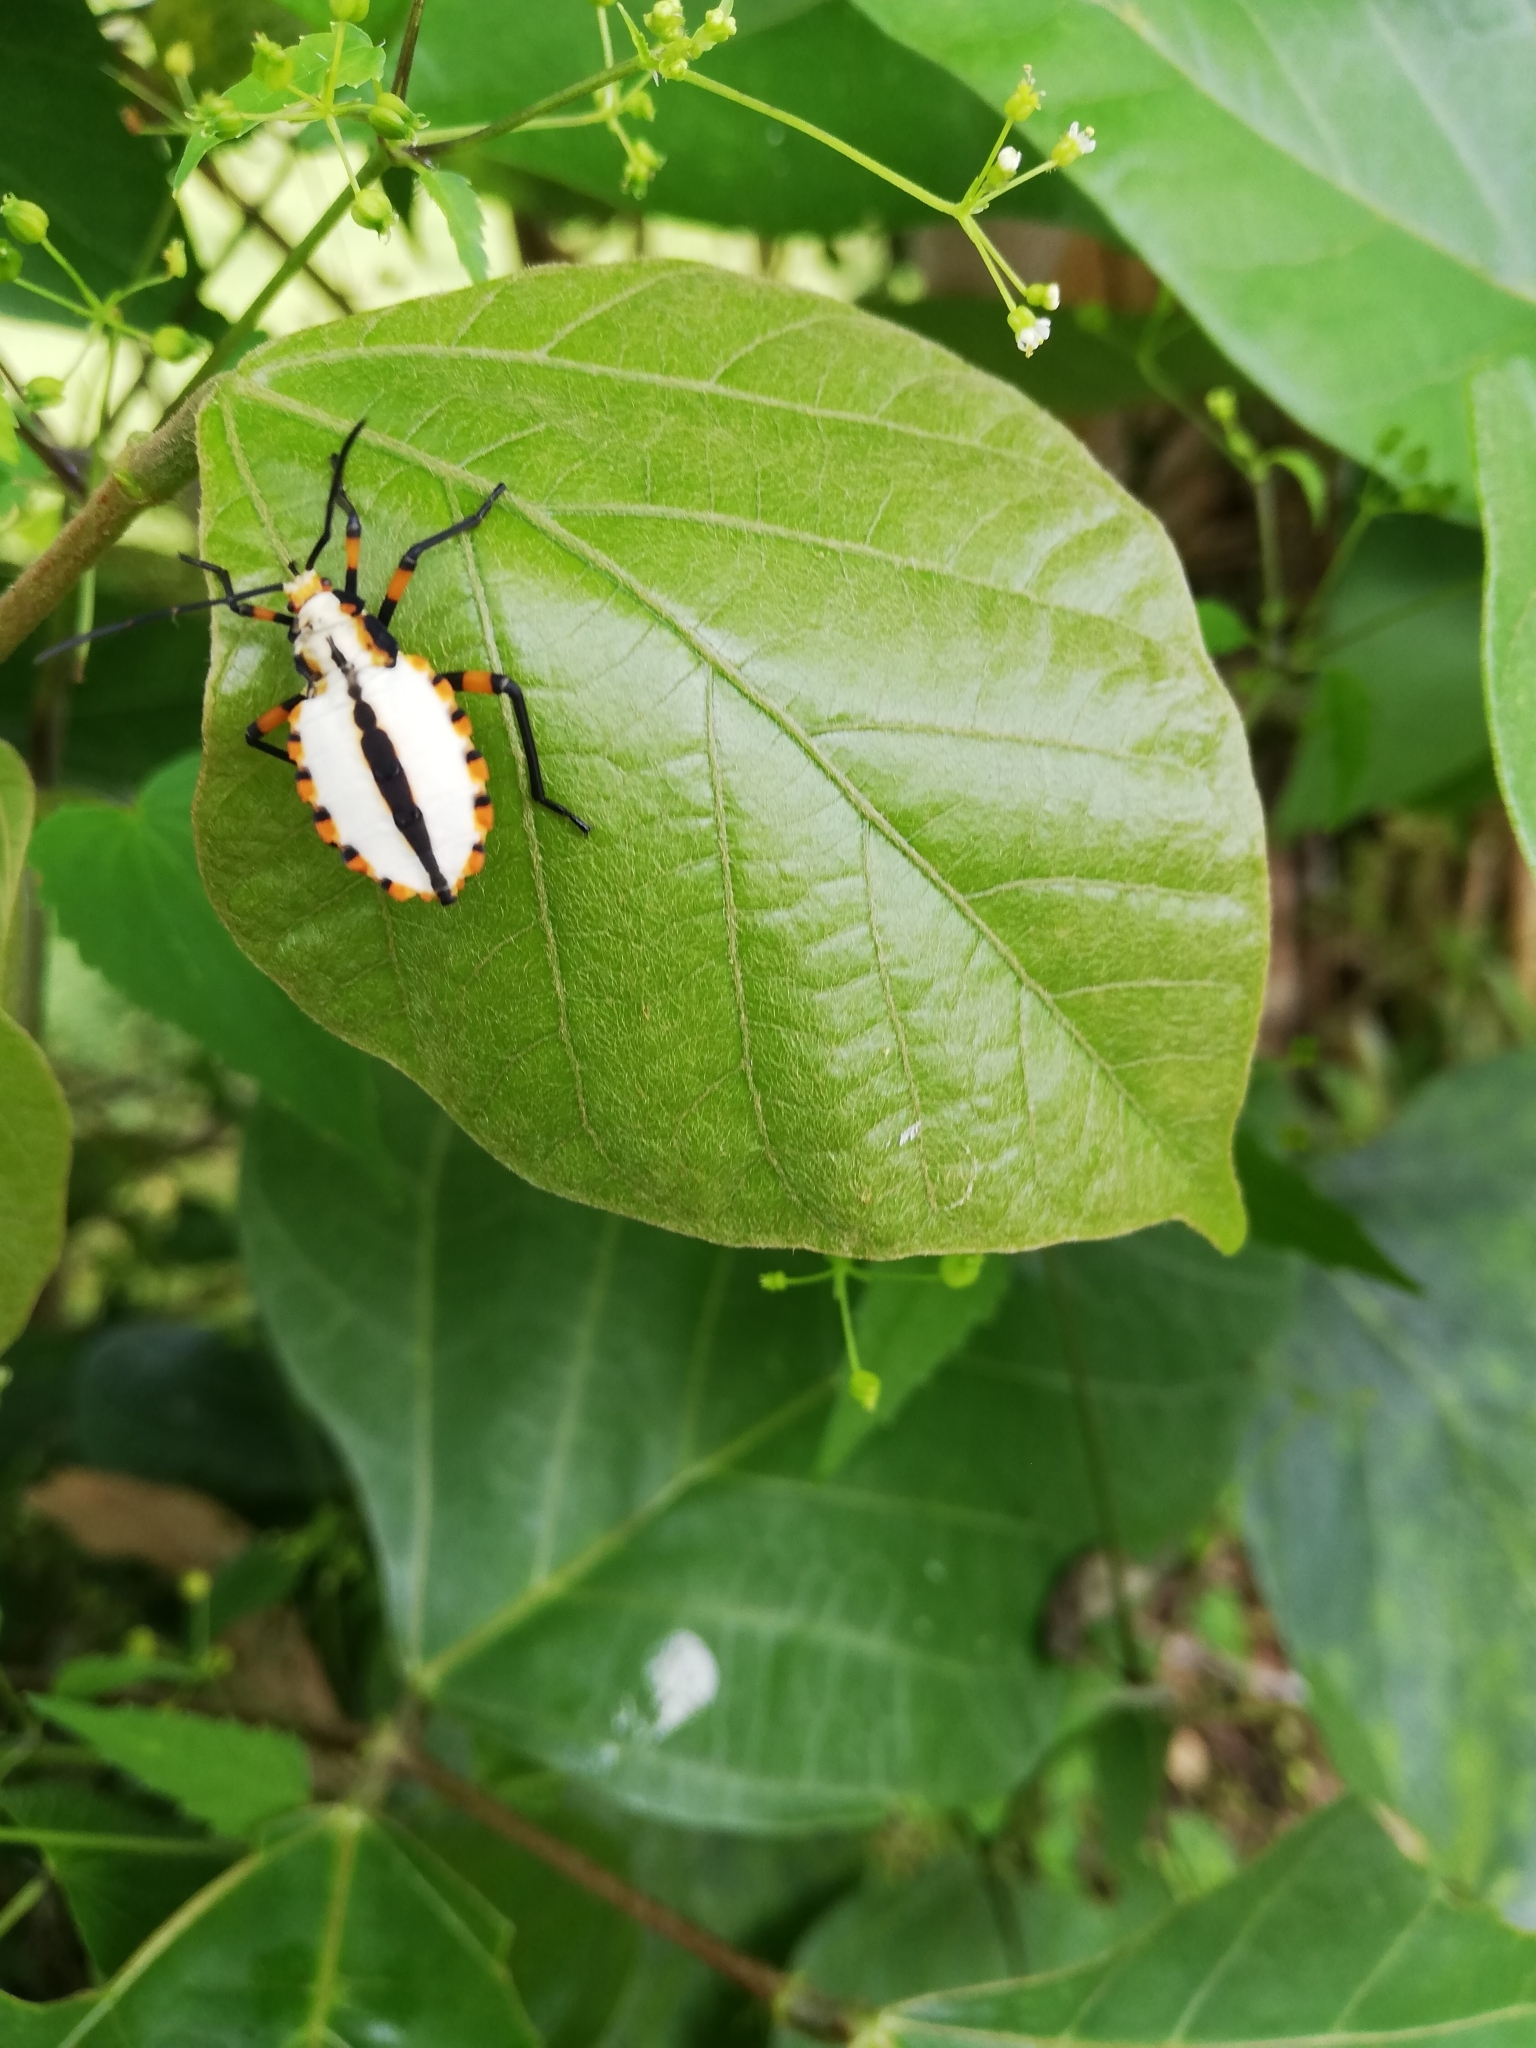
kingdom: Animalia
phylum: Arthropoda
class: Insecta
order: Hemiptera
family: Coreidae
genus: Thasopsis
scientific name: Thasopsis formidabilis
